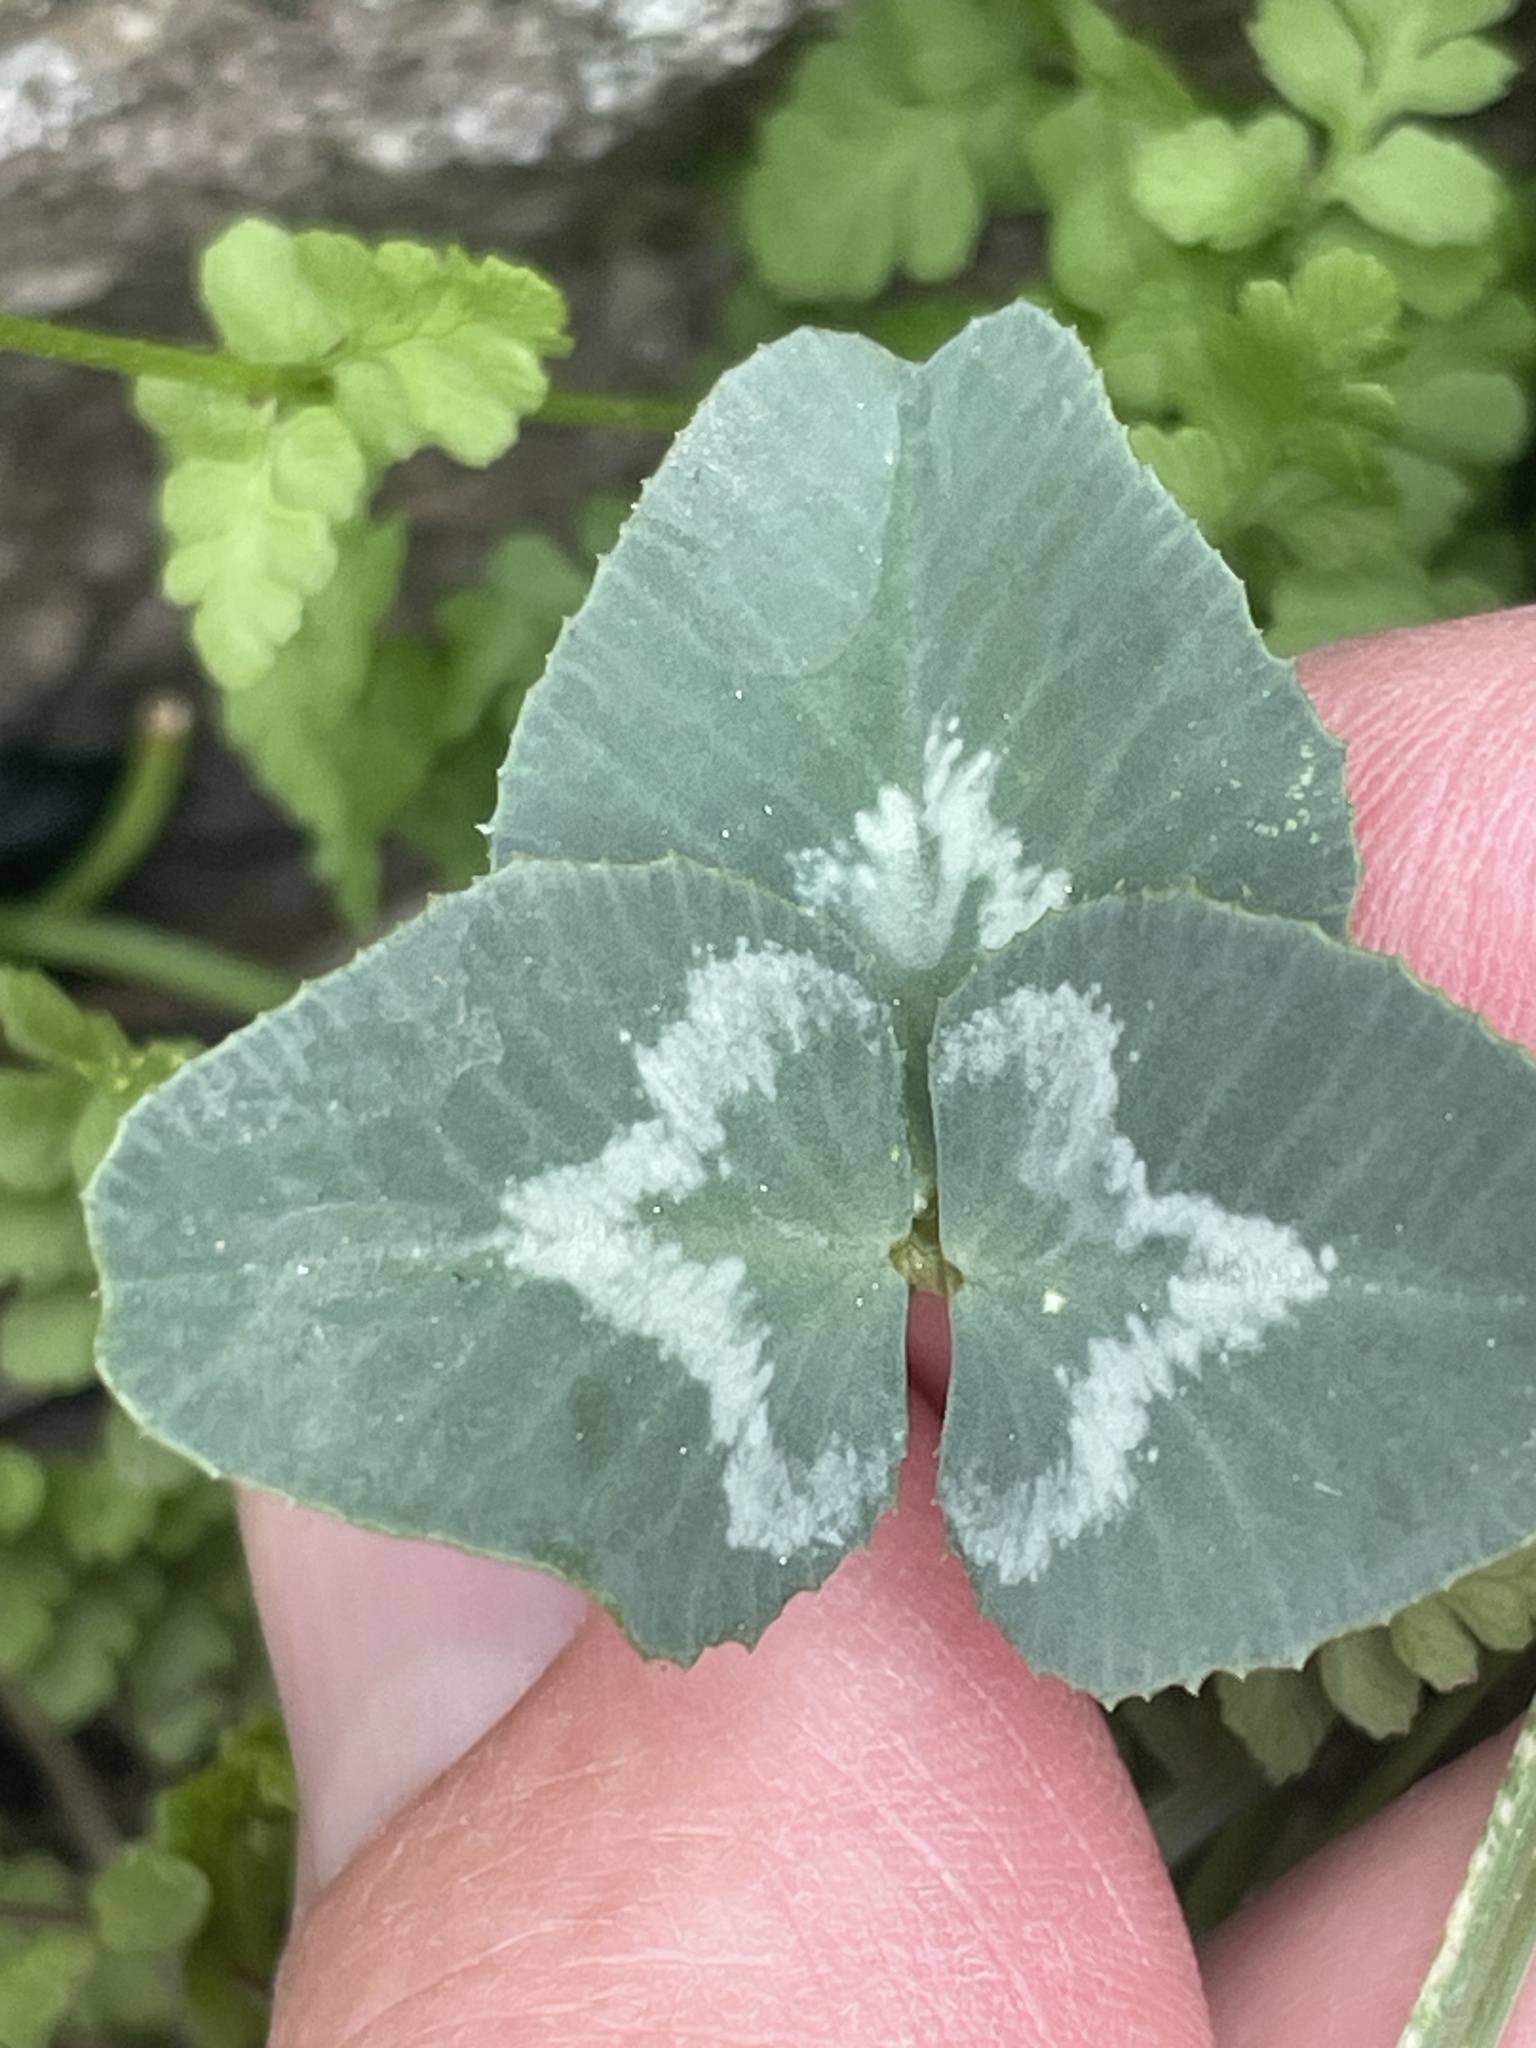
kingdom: Plantae
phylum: Tracheophyta
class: Magnoliopsida
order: Fabales
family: Fabaceae
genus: Trifolium
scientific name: Trifolium kingii
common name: Shasta clover
